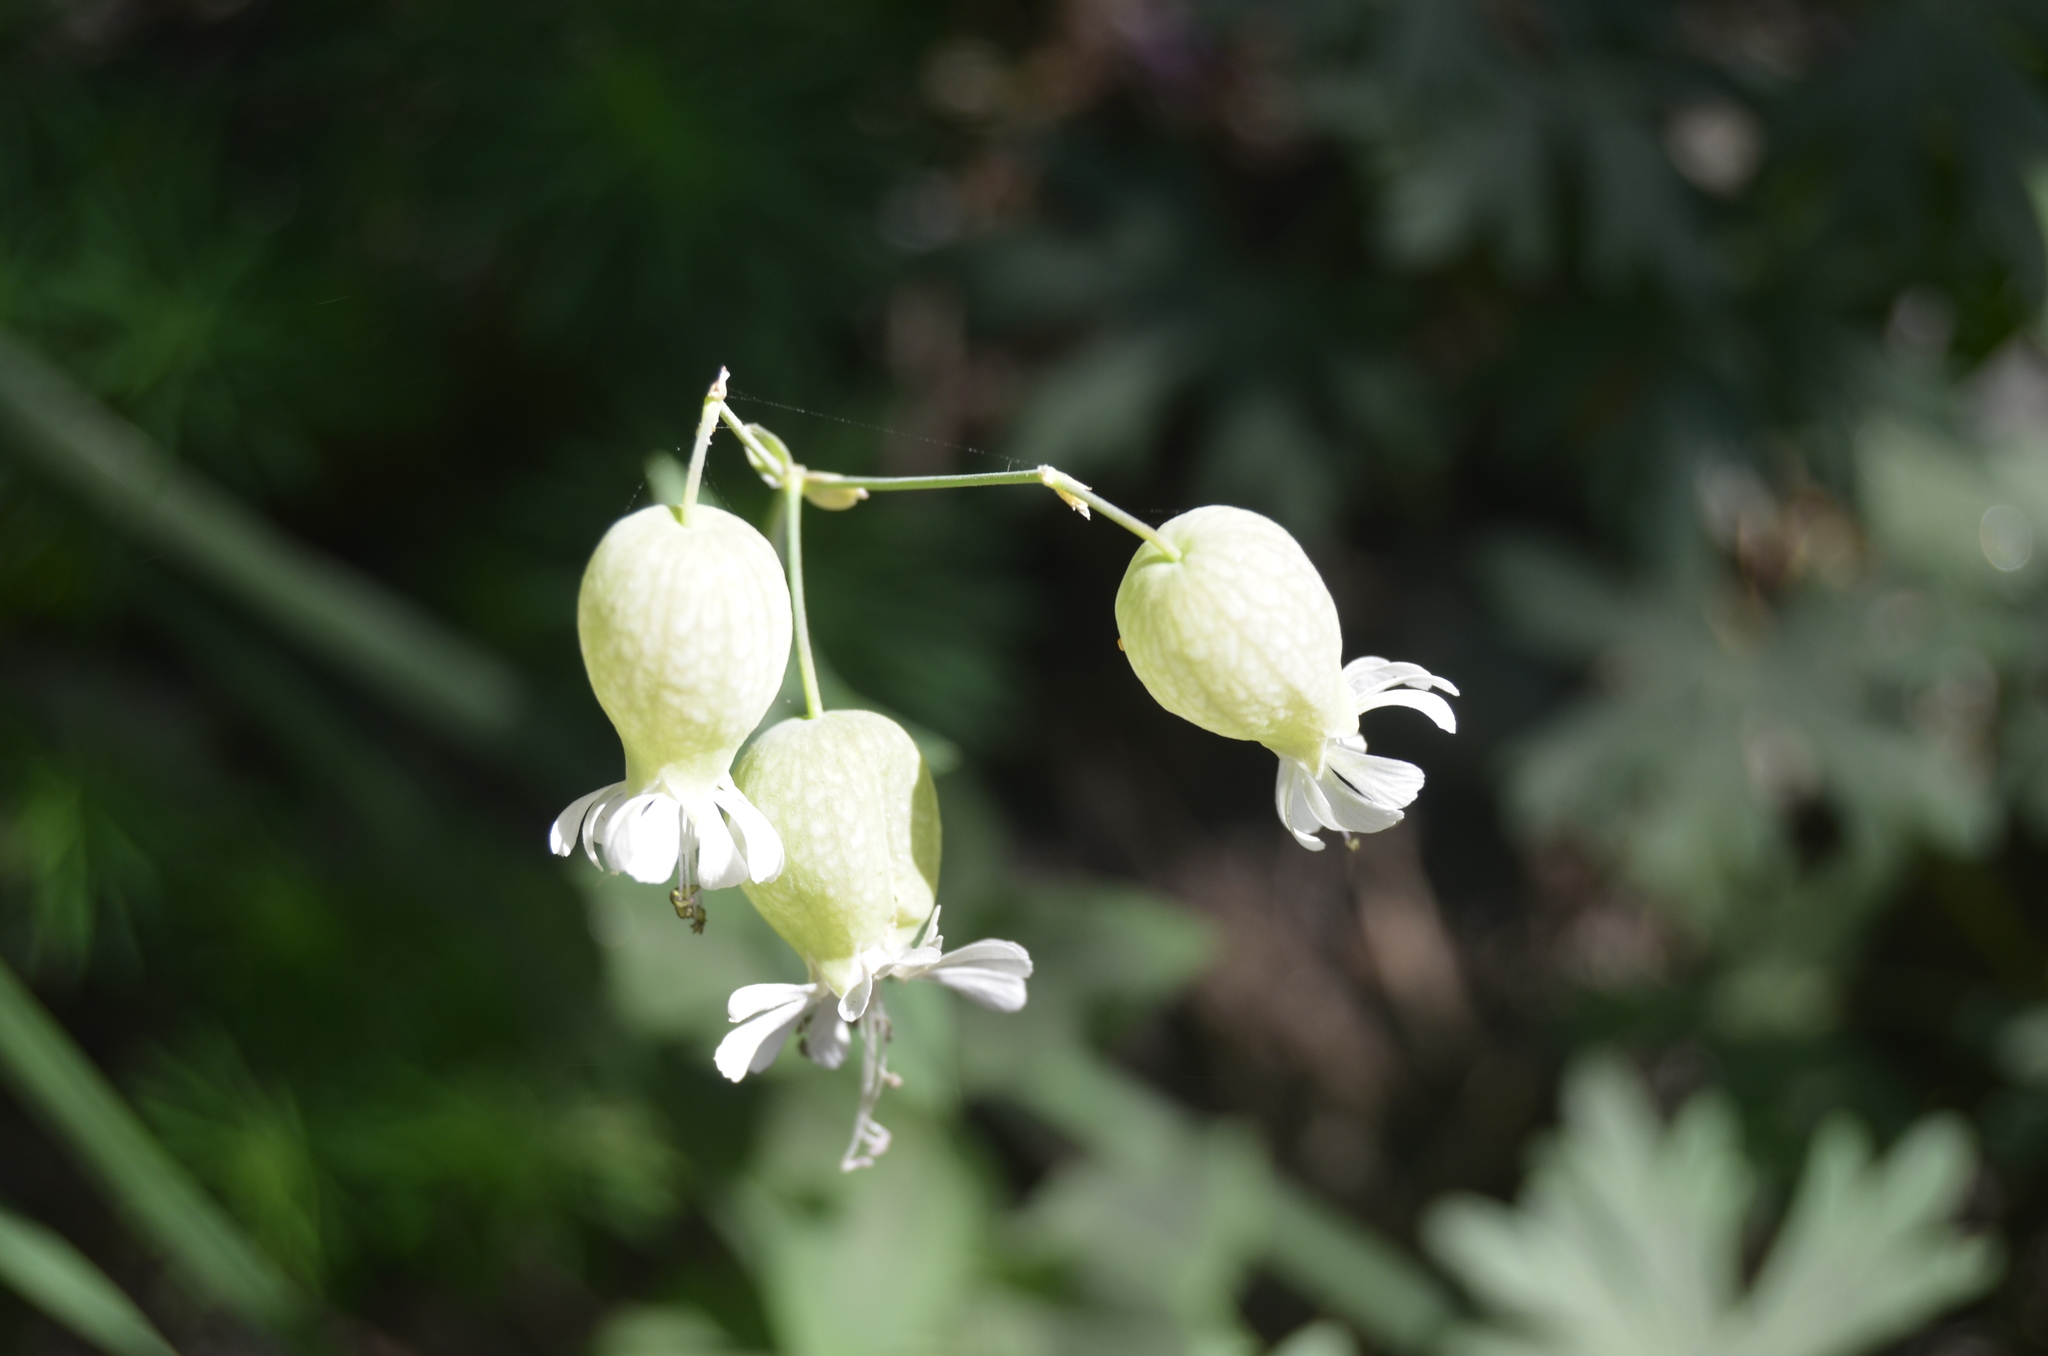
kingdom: Plantae
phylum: Tracheophyta
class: Magnoliopsida
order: Caryophyllales
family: Caryophyllaceae
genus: Silene
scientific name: Silene vulgaris
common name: Bladder campion
